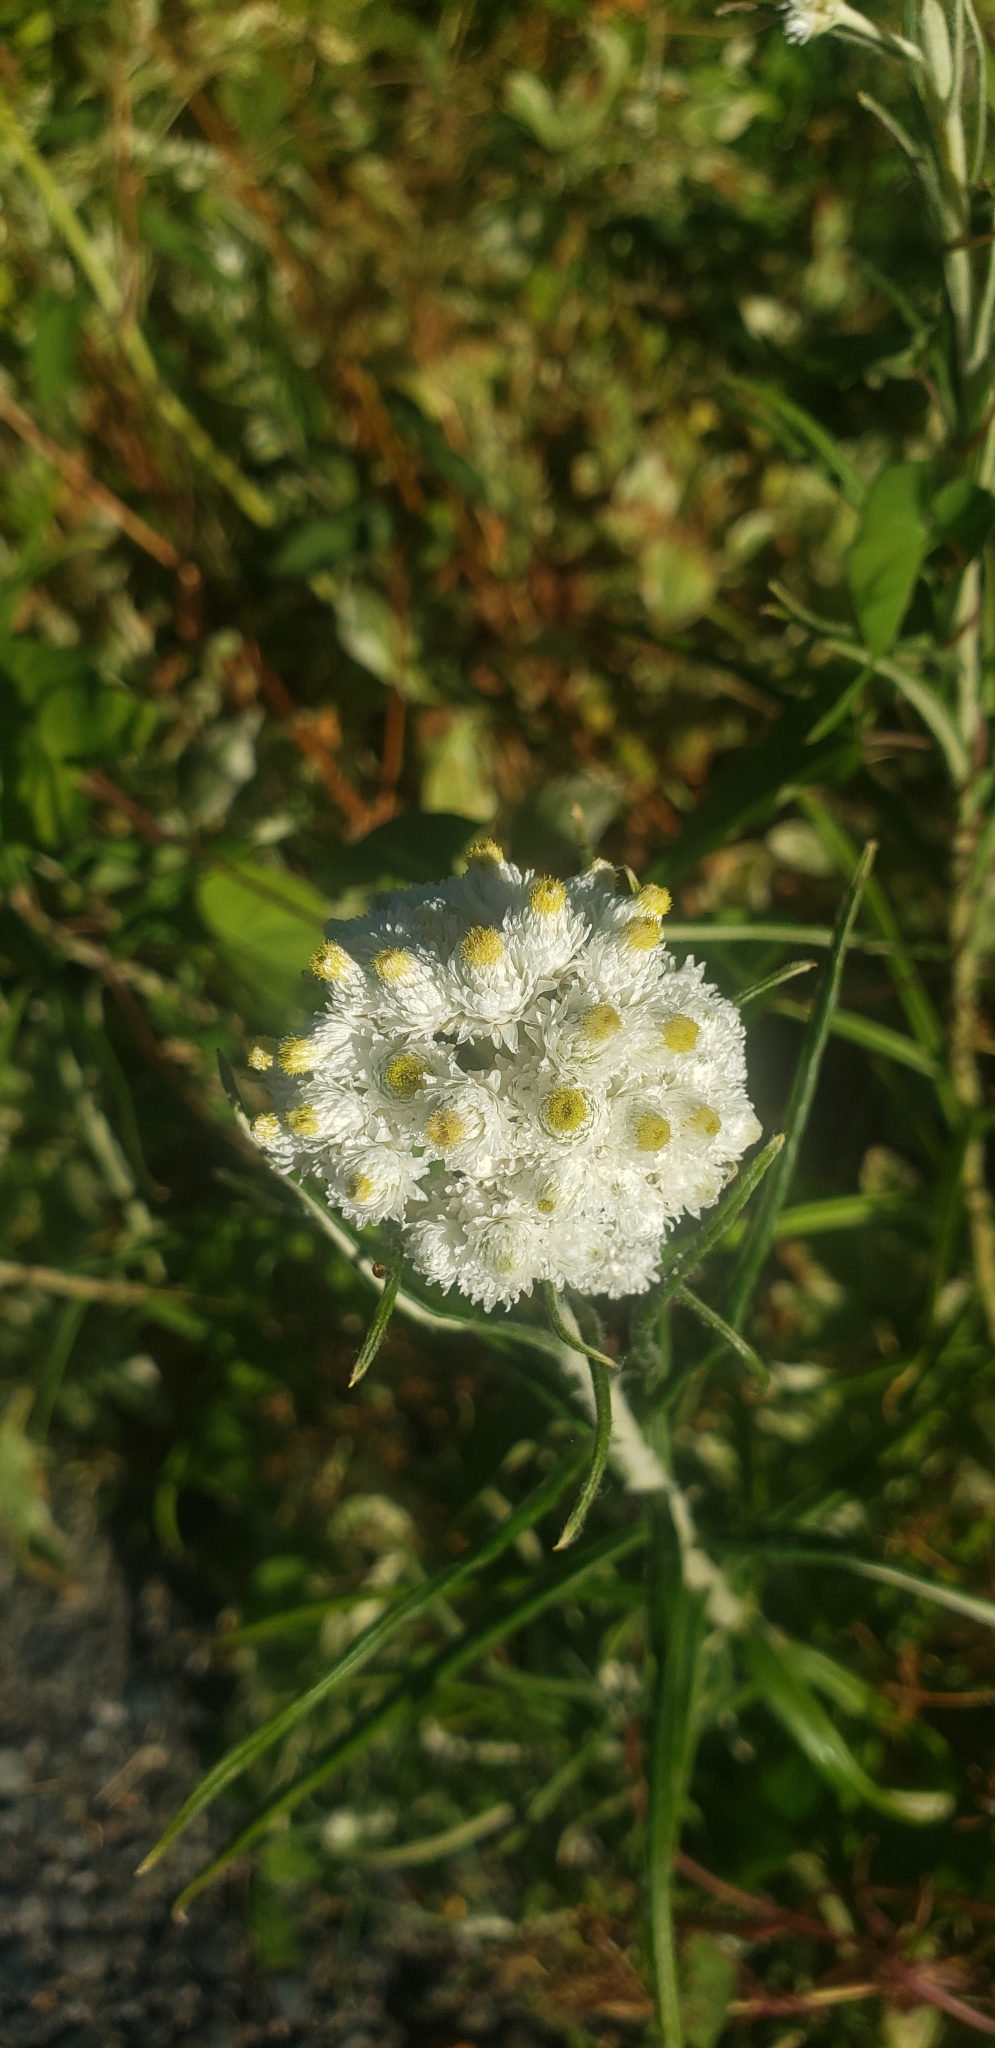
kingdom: Plantae
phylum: Tracheophyta
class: Magnoliopsida
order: Asterales
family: Asteraceae
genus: Anaphalis
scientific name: Anaphalis margaritacea
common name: Pearly everlasting
